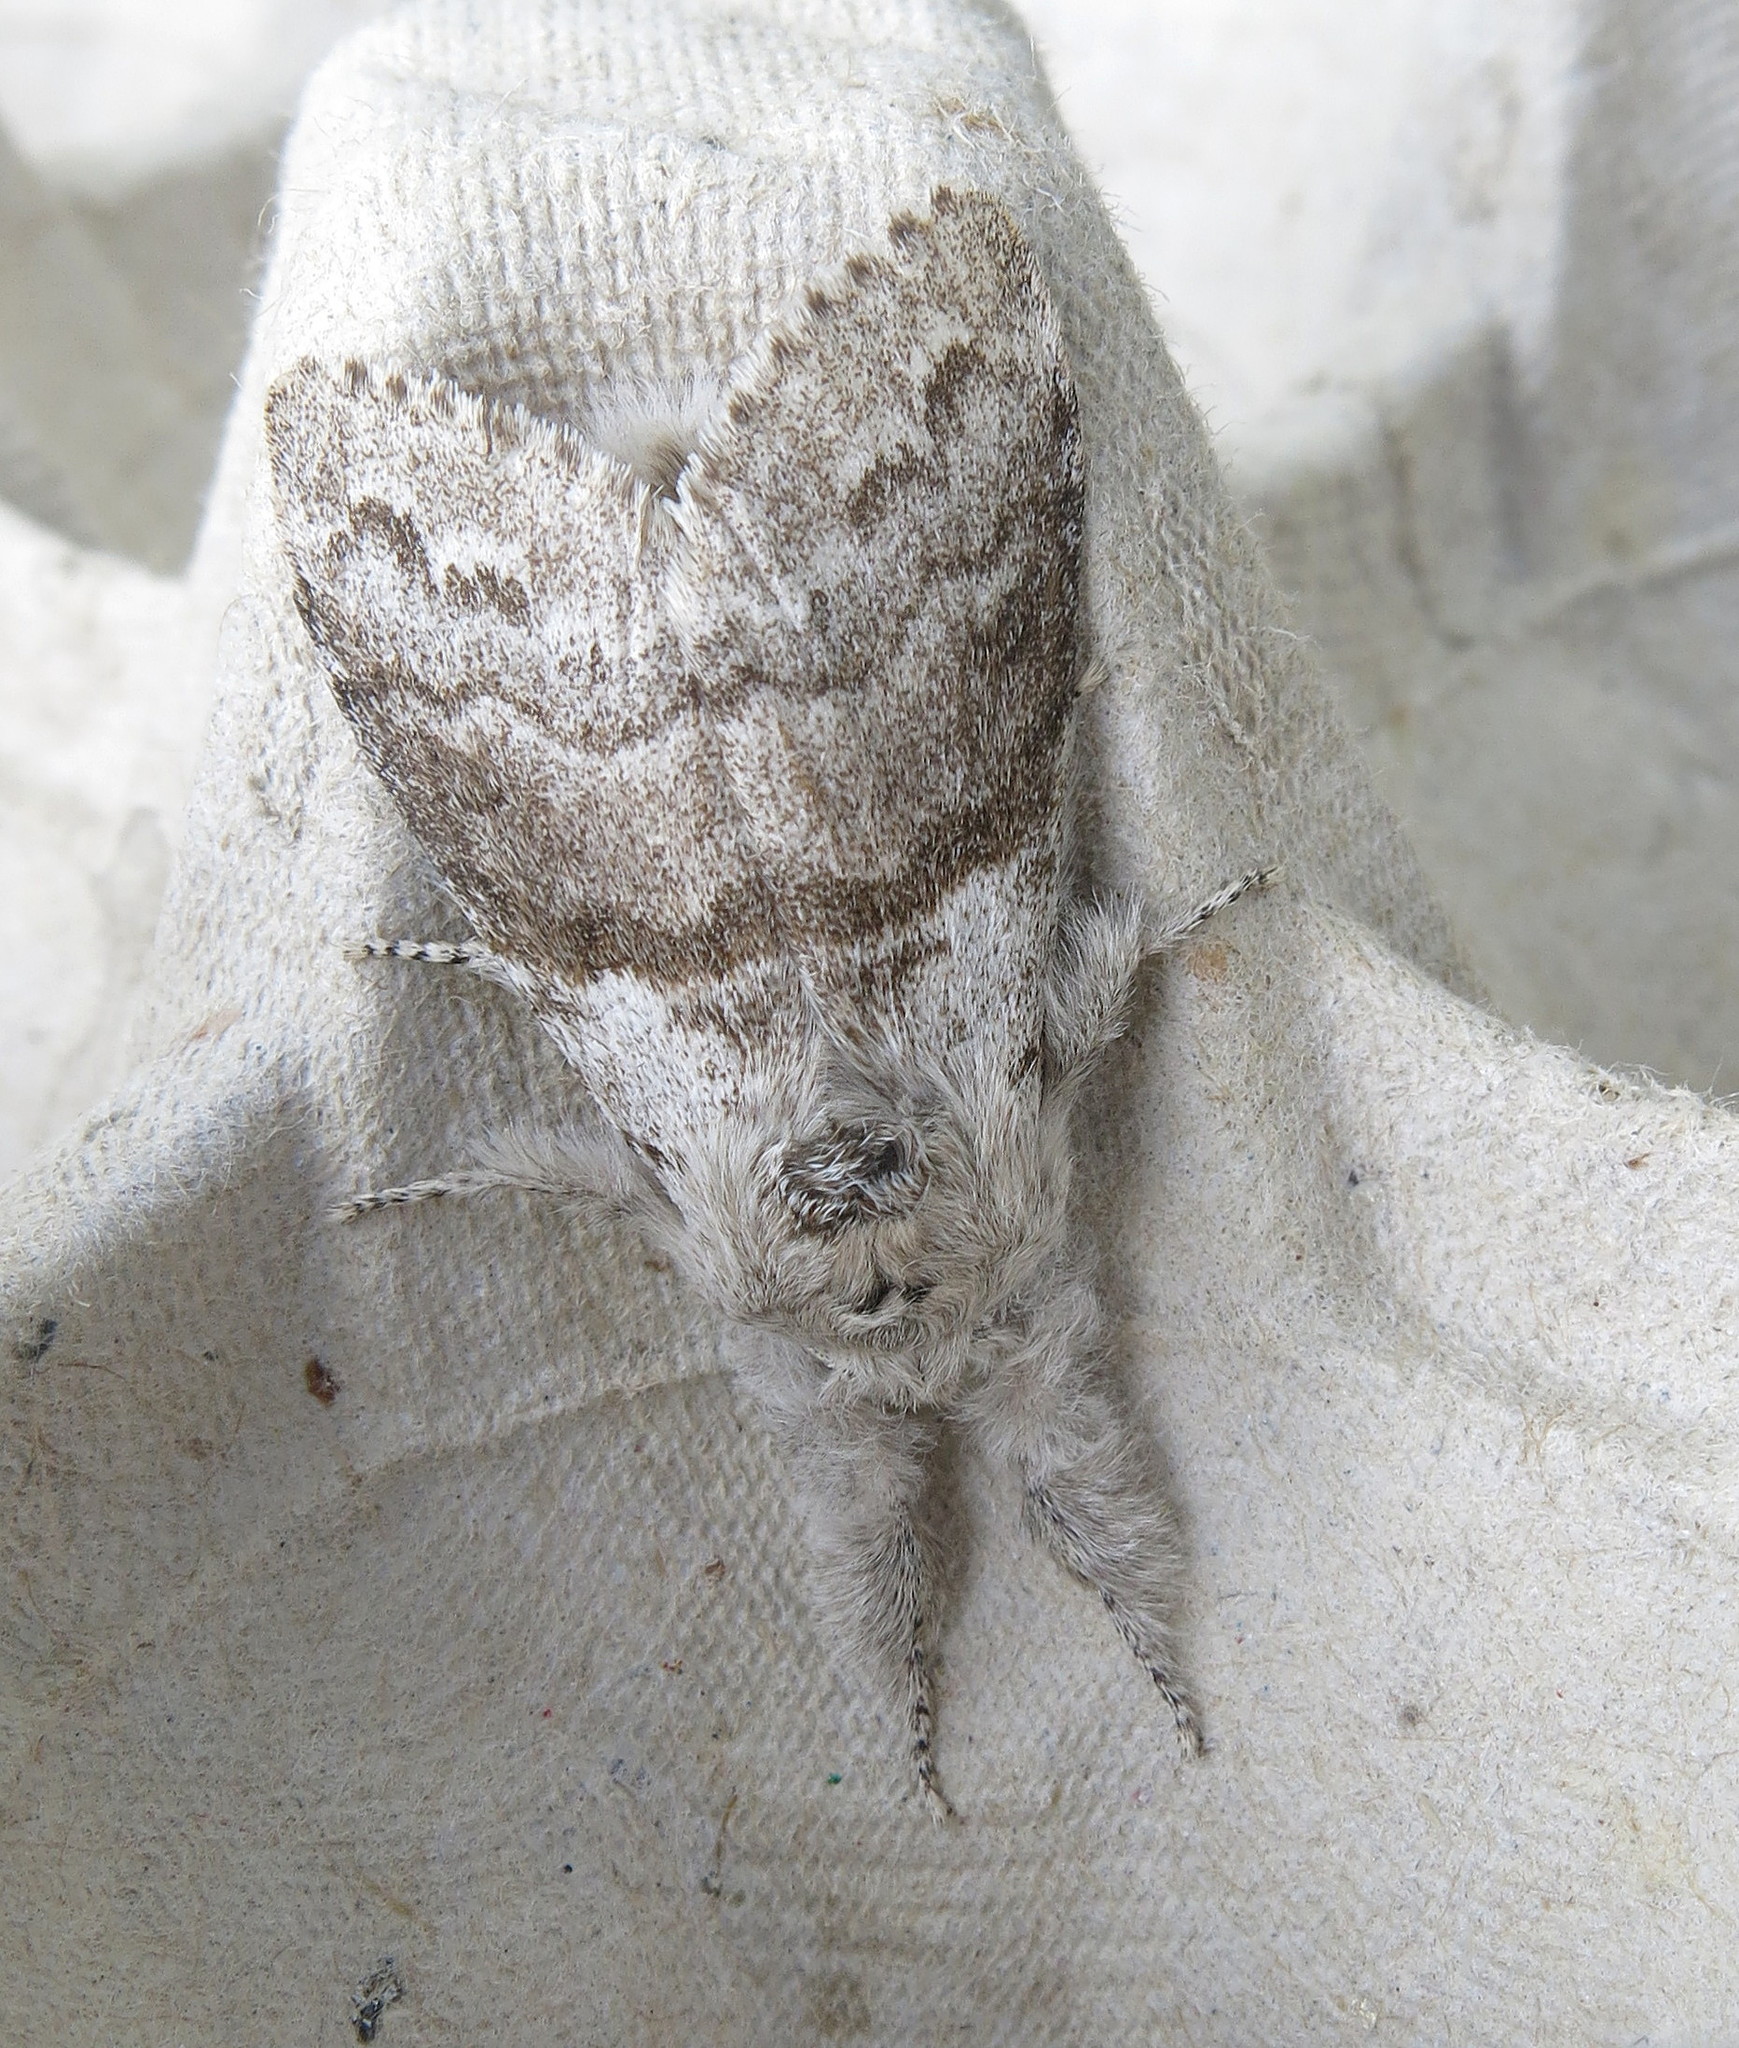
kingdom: Animalia
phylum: Arthropoda
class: Insecta
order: Lepidoptera
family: Erebidae
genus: Calliteara
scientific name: Calliteara pudibunda
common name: Pale tussock
